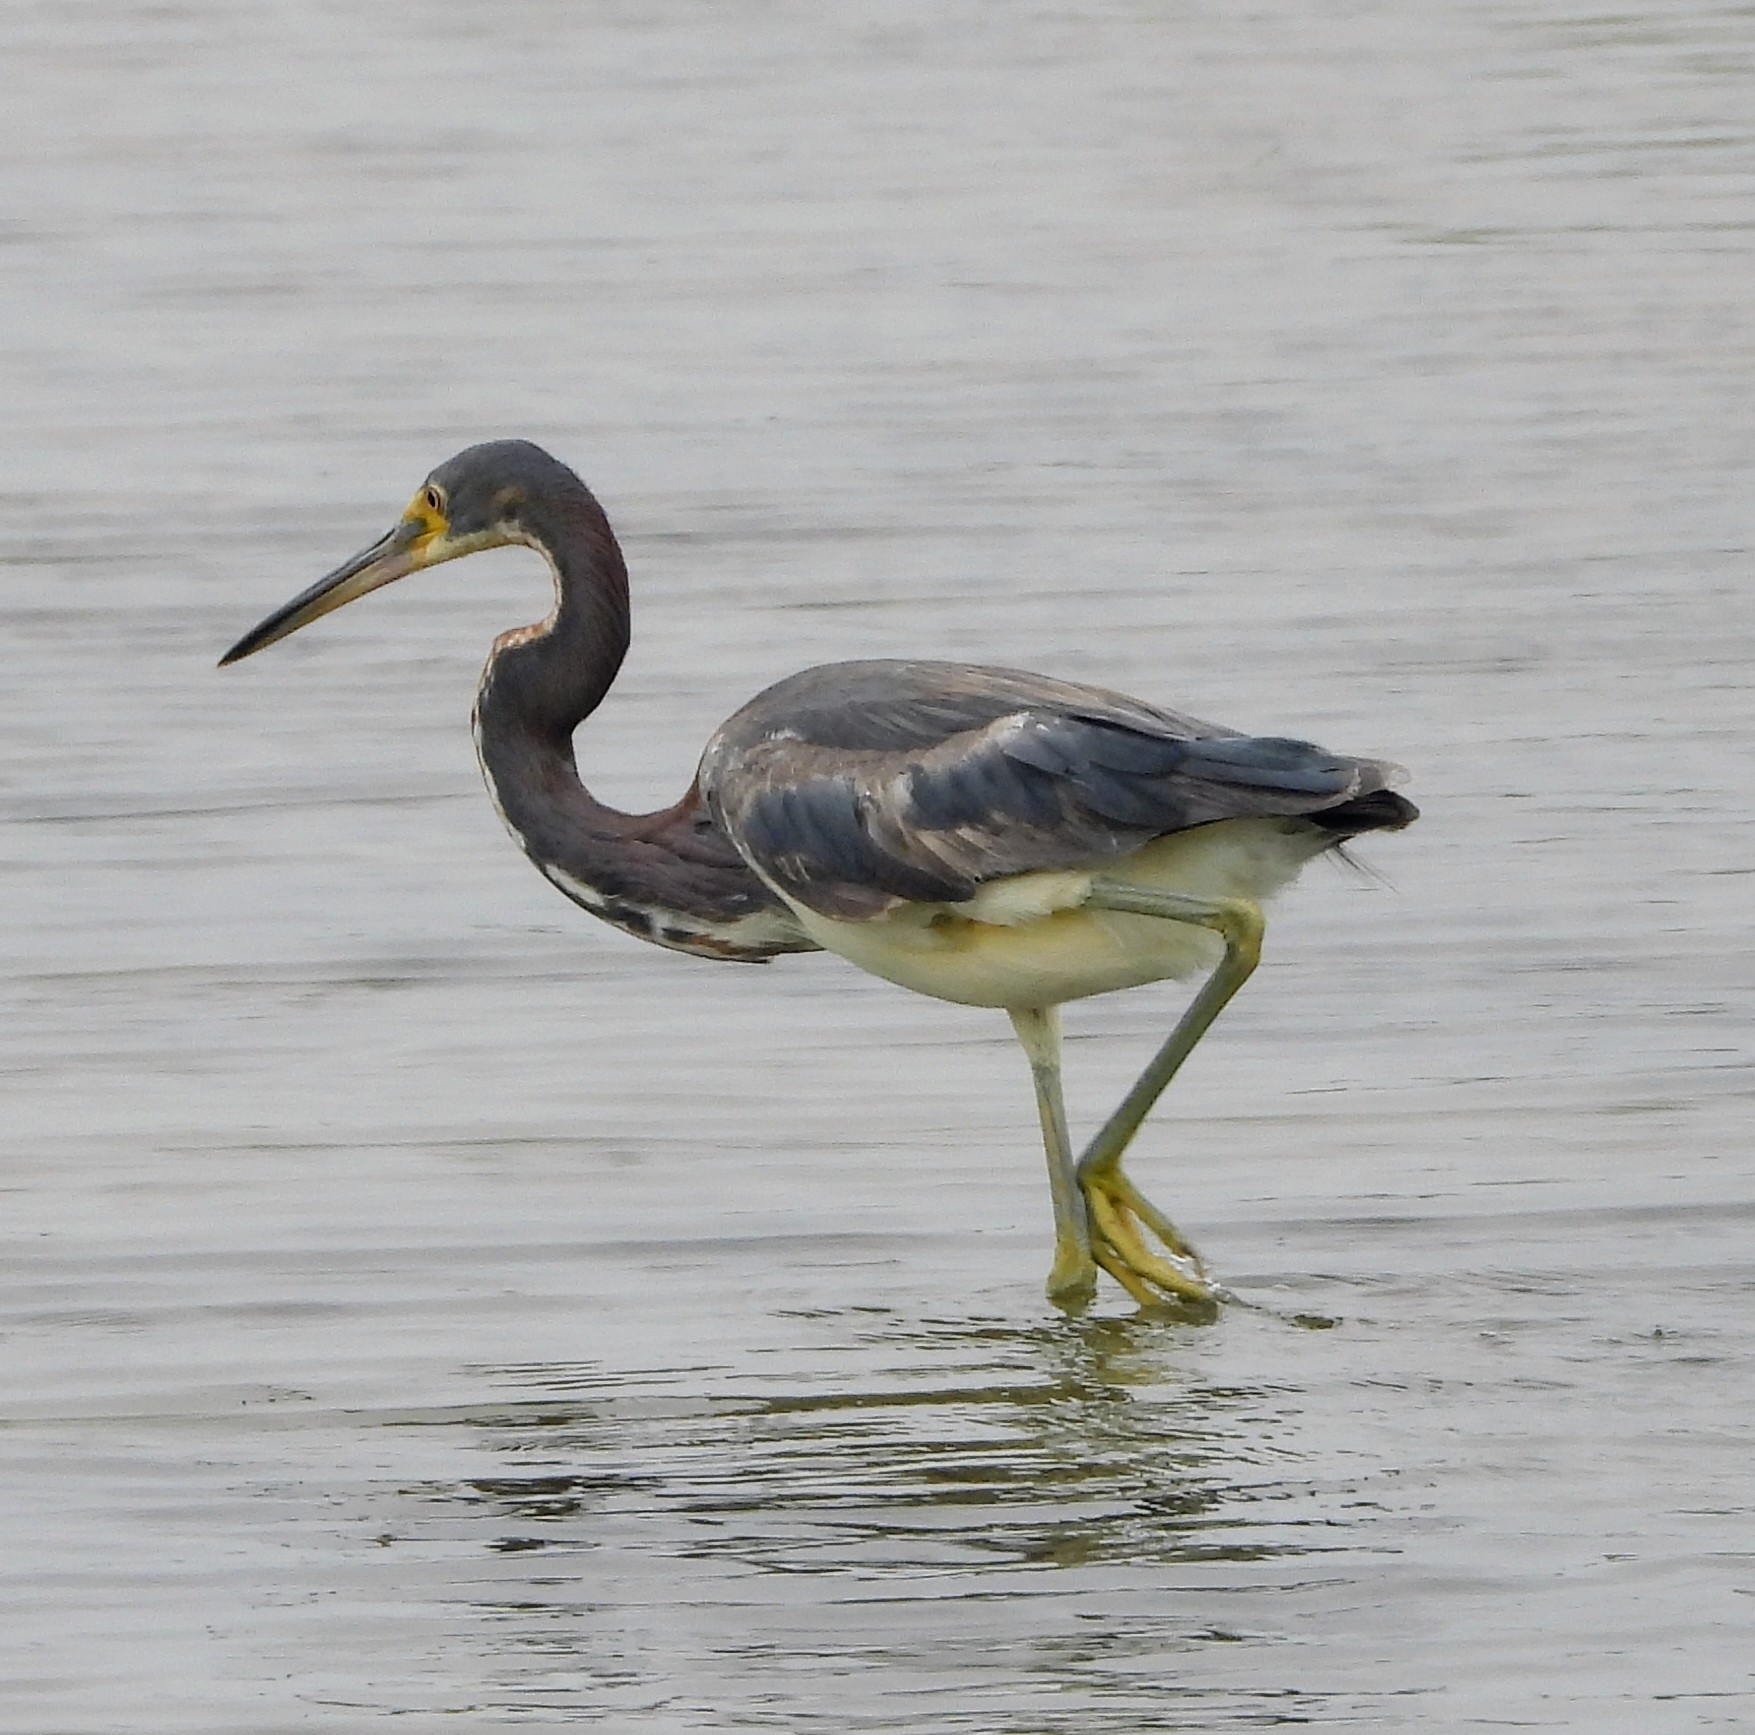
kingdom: Animalia
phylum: Chordata
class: Aves
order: Pelecaniformes
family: Ardeidae
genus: Egretta
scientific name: Egretta tricolor
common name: Tricolored heron
